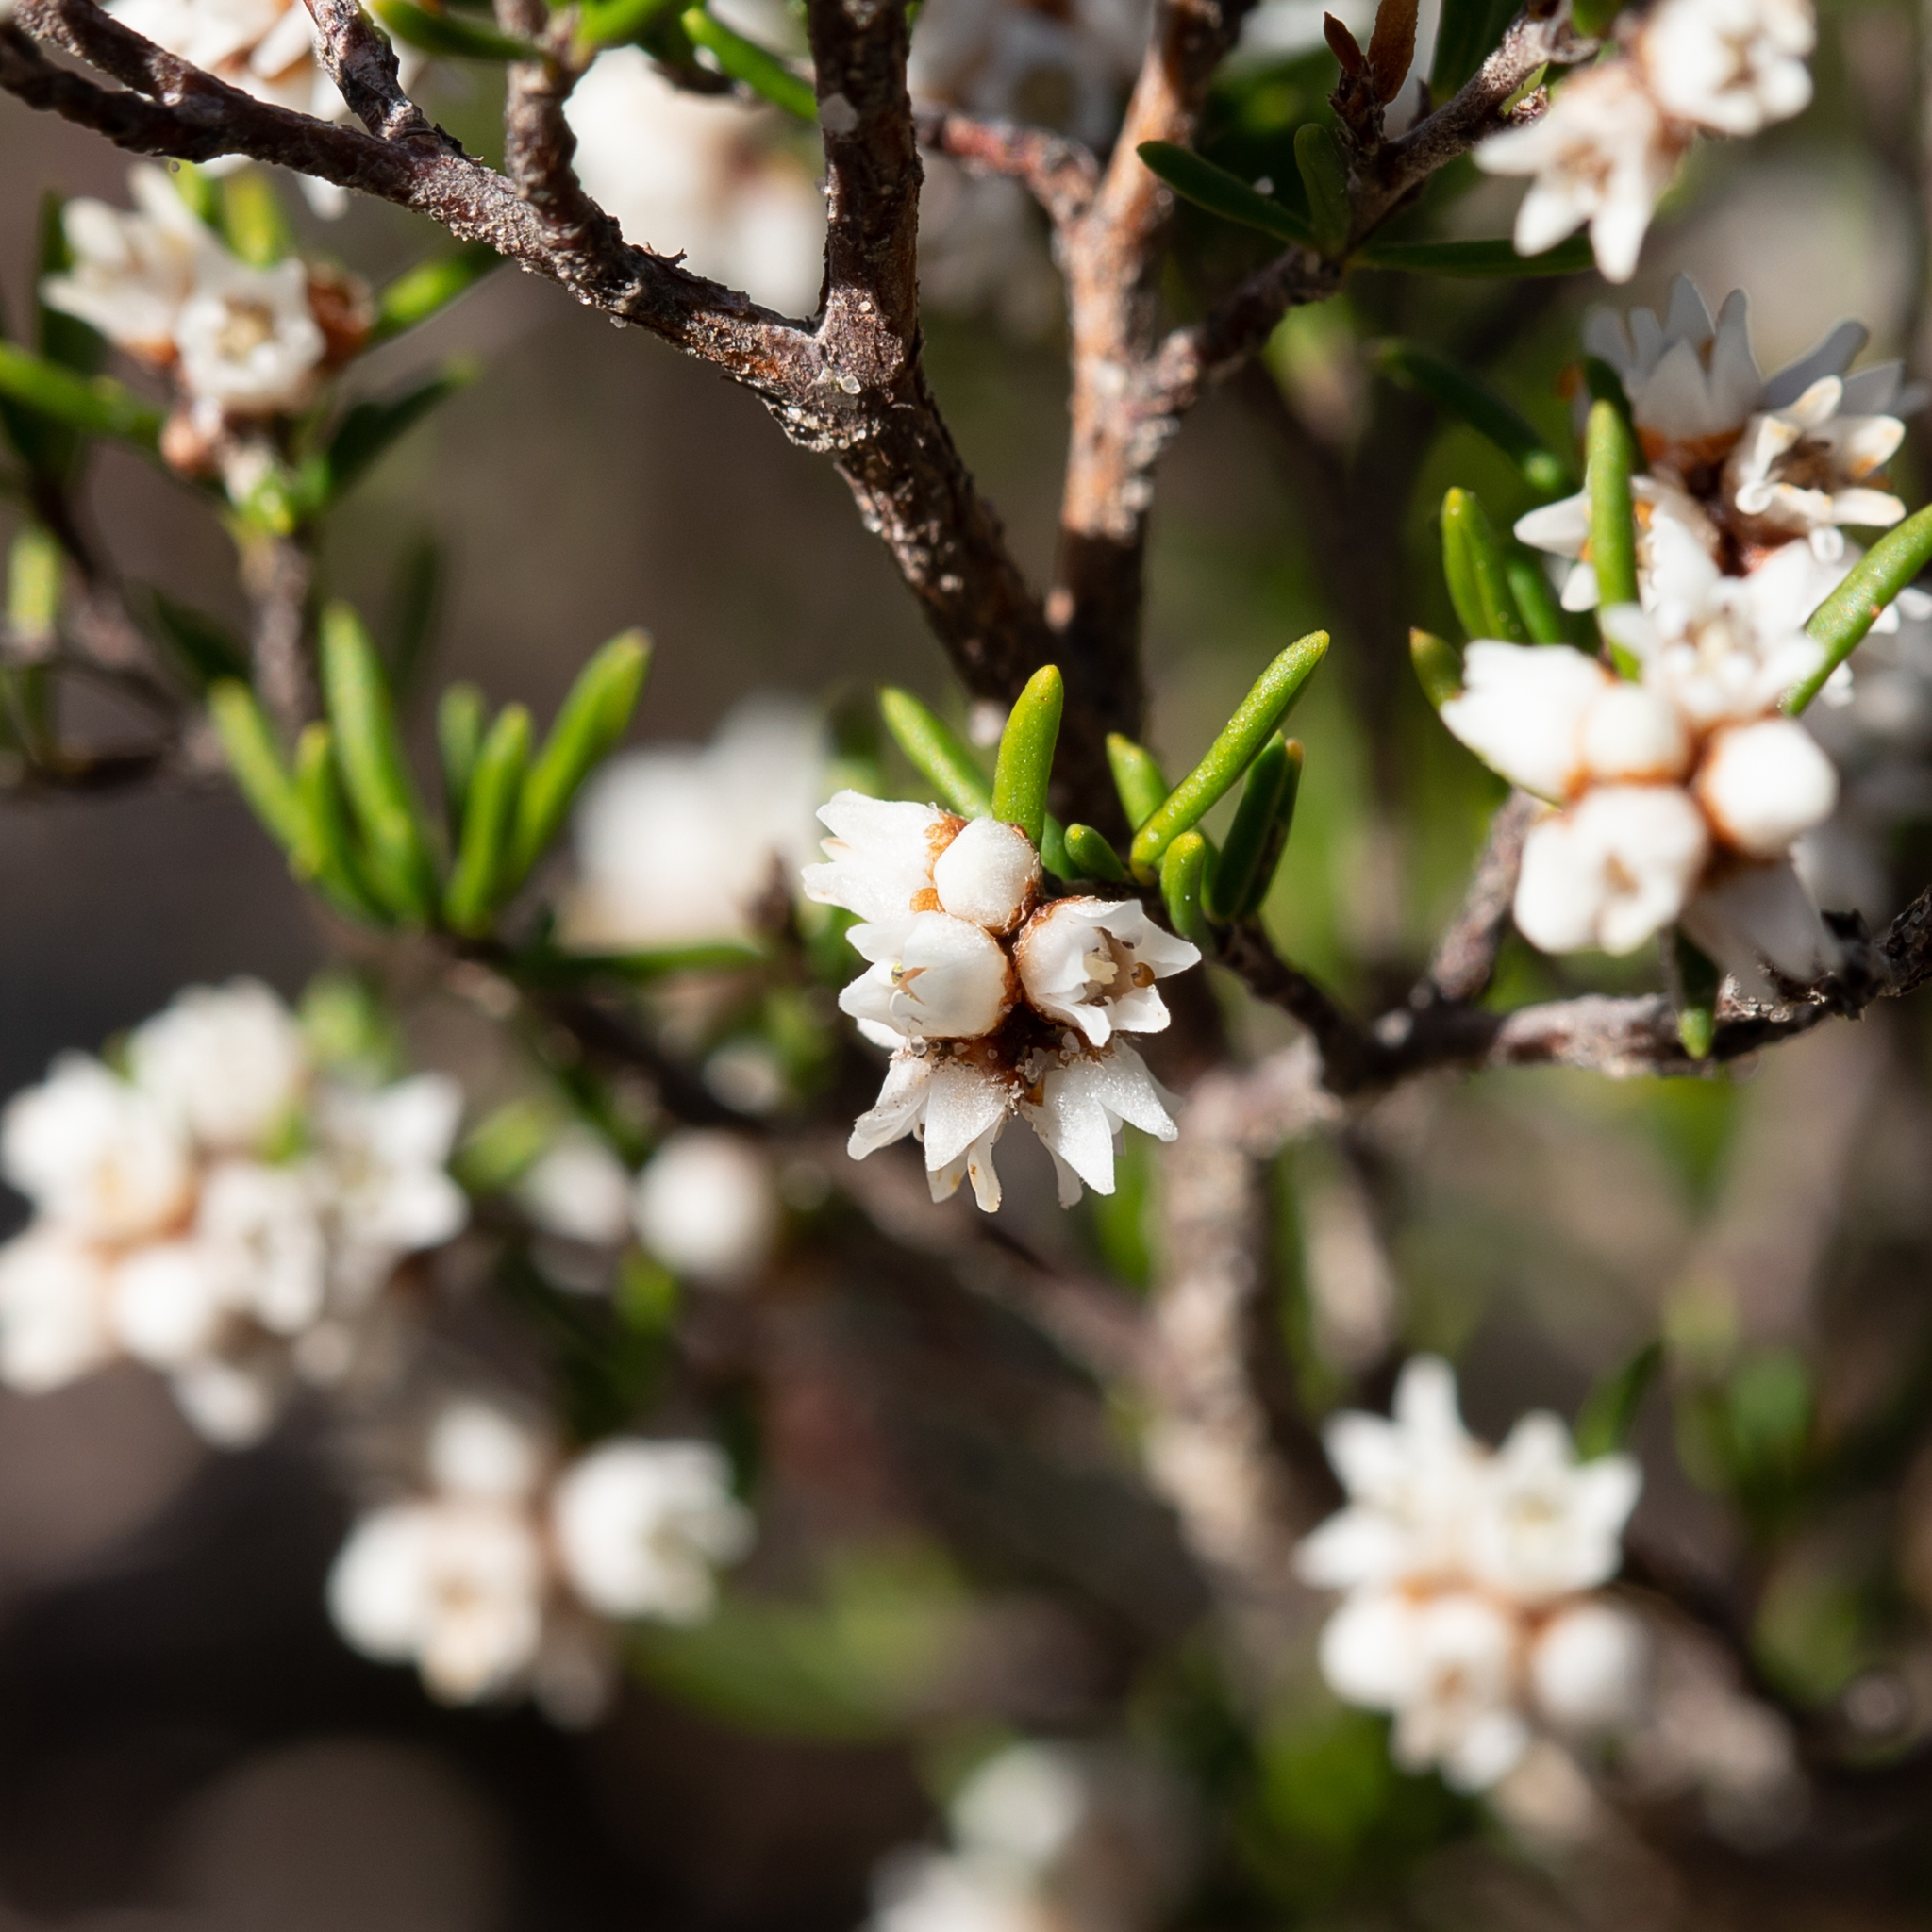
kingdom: Plantae
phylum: Tracheophyta
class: Magnoliopsida
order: Rosales
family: Rhamnaceae
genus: Cryptandra
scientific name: Cryptandra tomentosa
